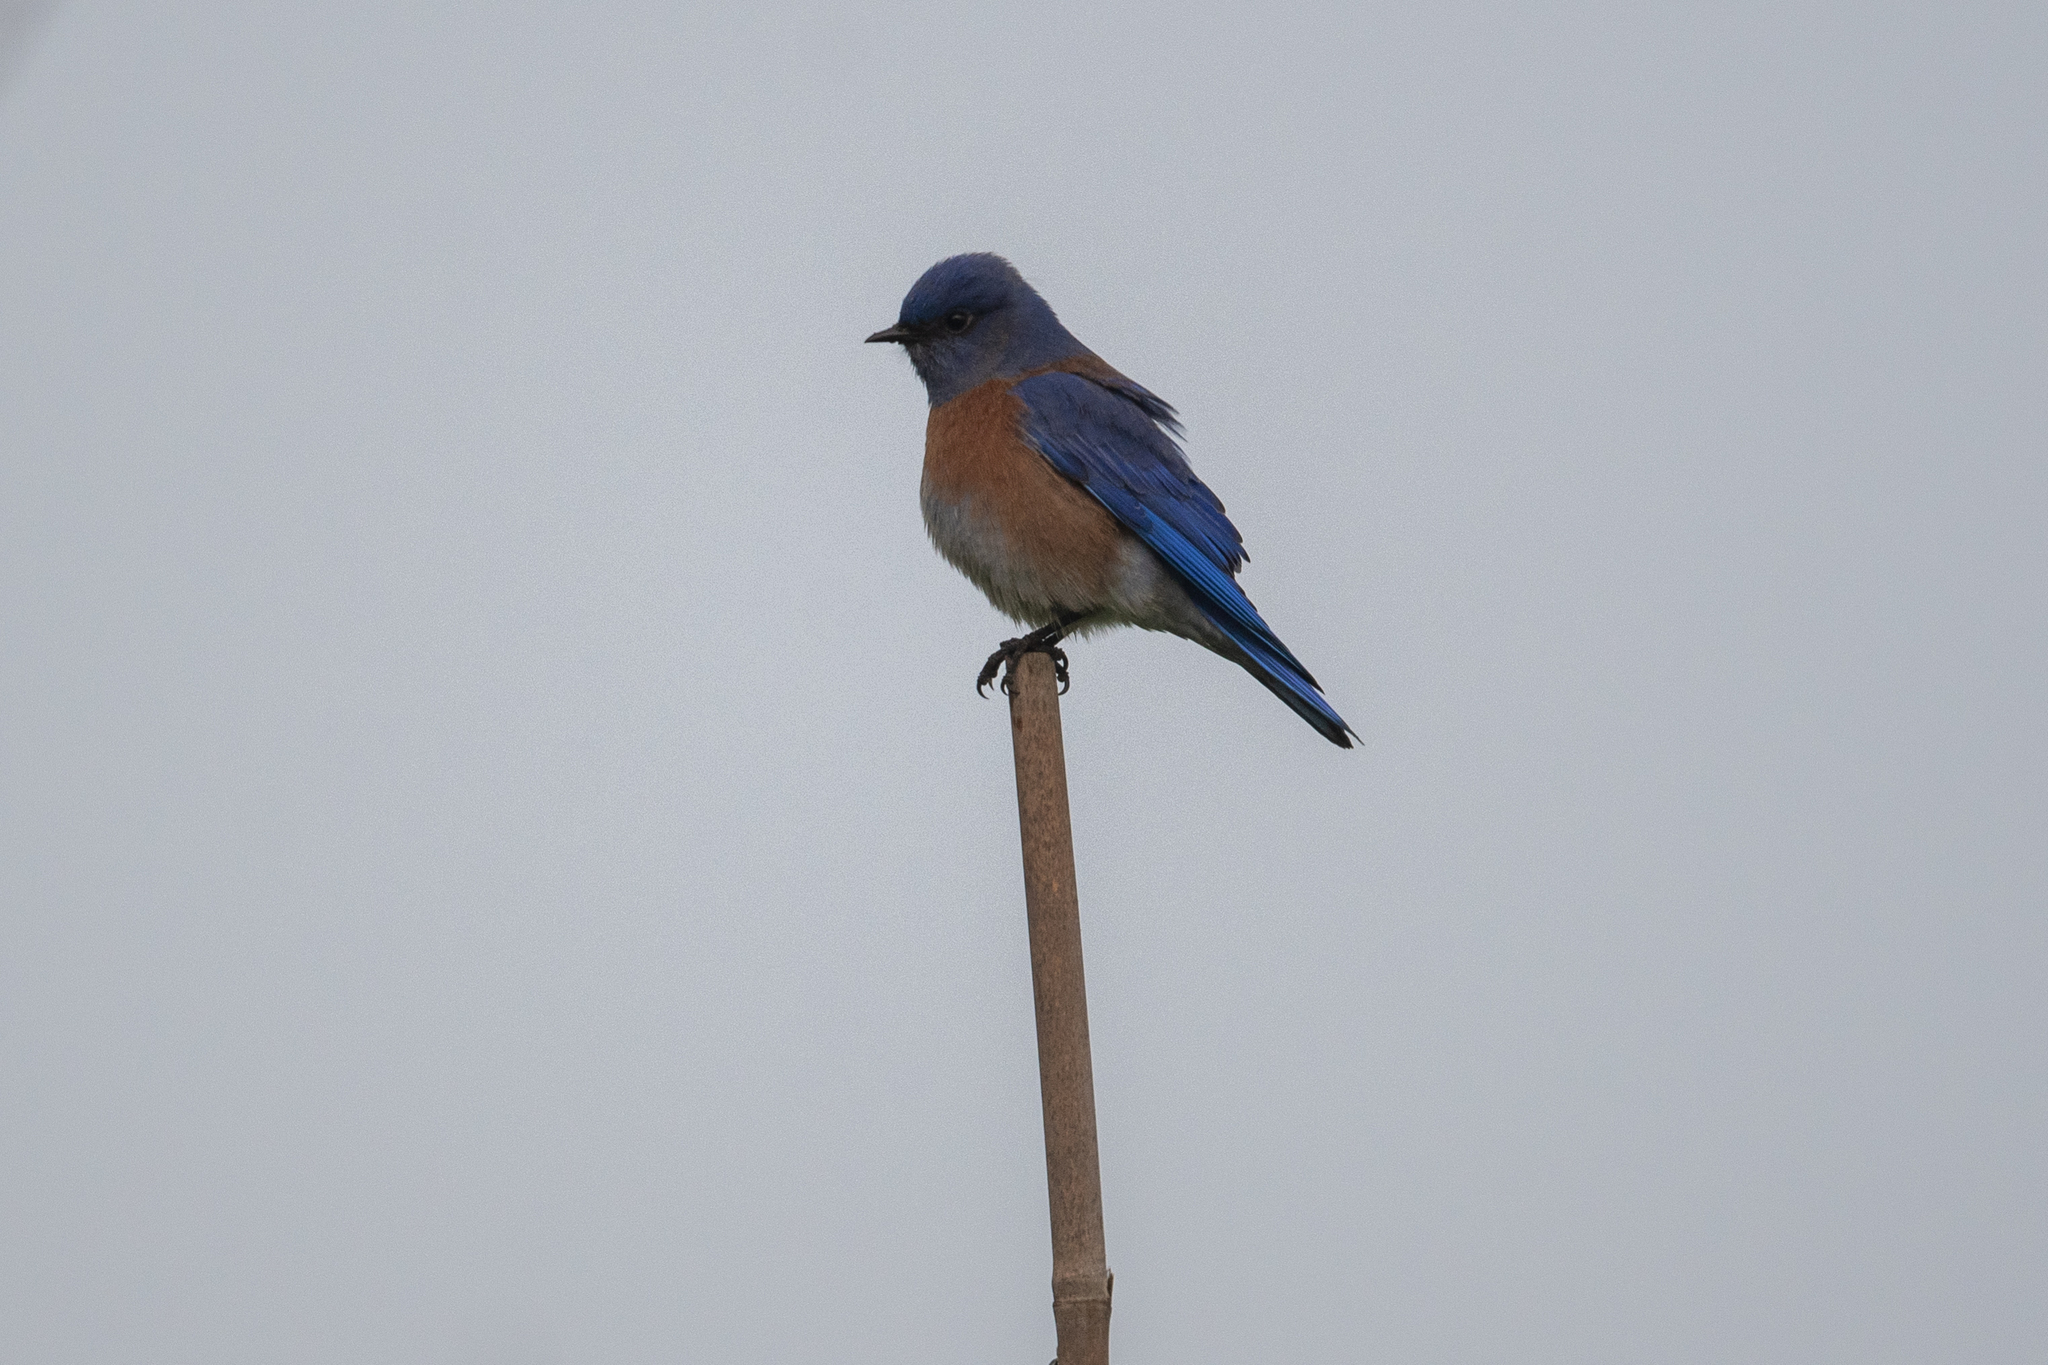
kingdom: Animalia
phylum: Chordata
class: Aves
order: Passeriformes
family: Turdidae
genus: Sialia
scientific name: Sialia mexicana
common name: Western bluebird
